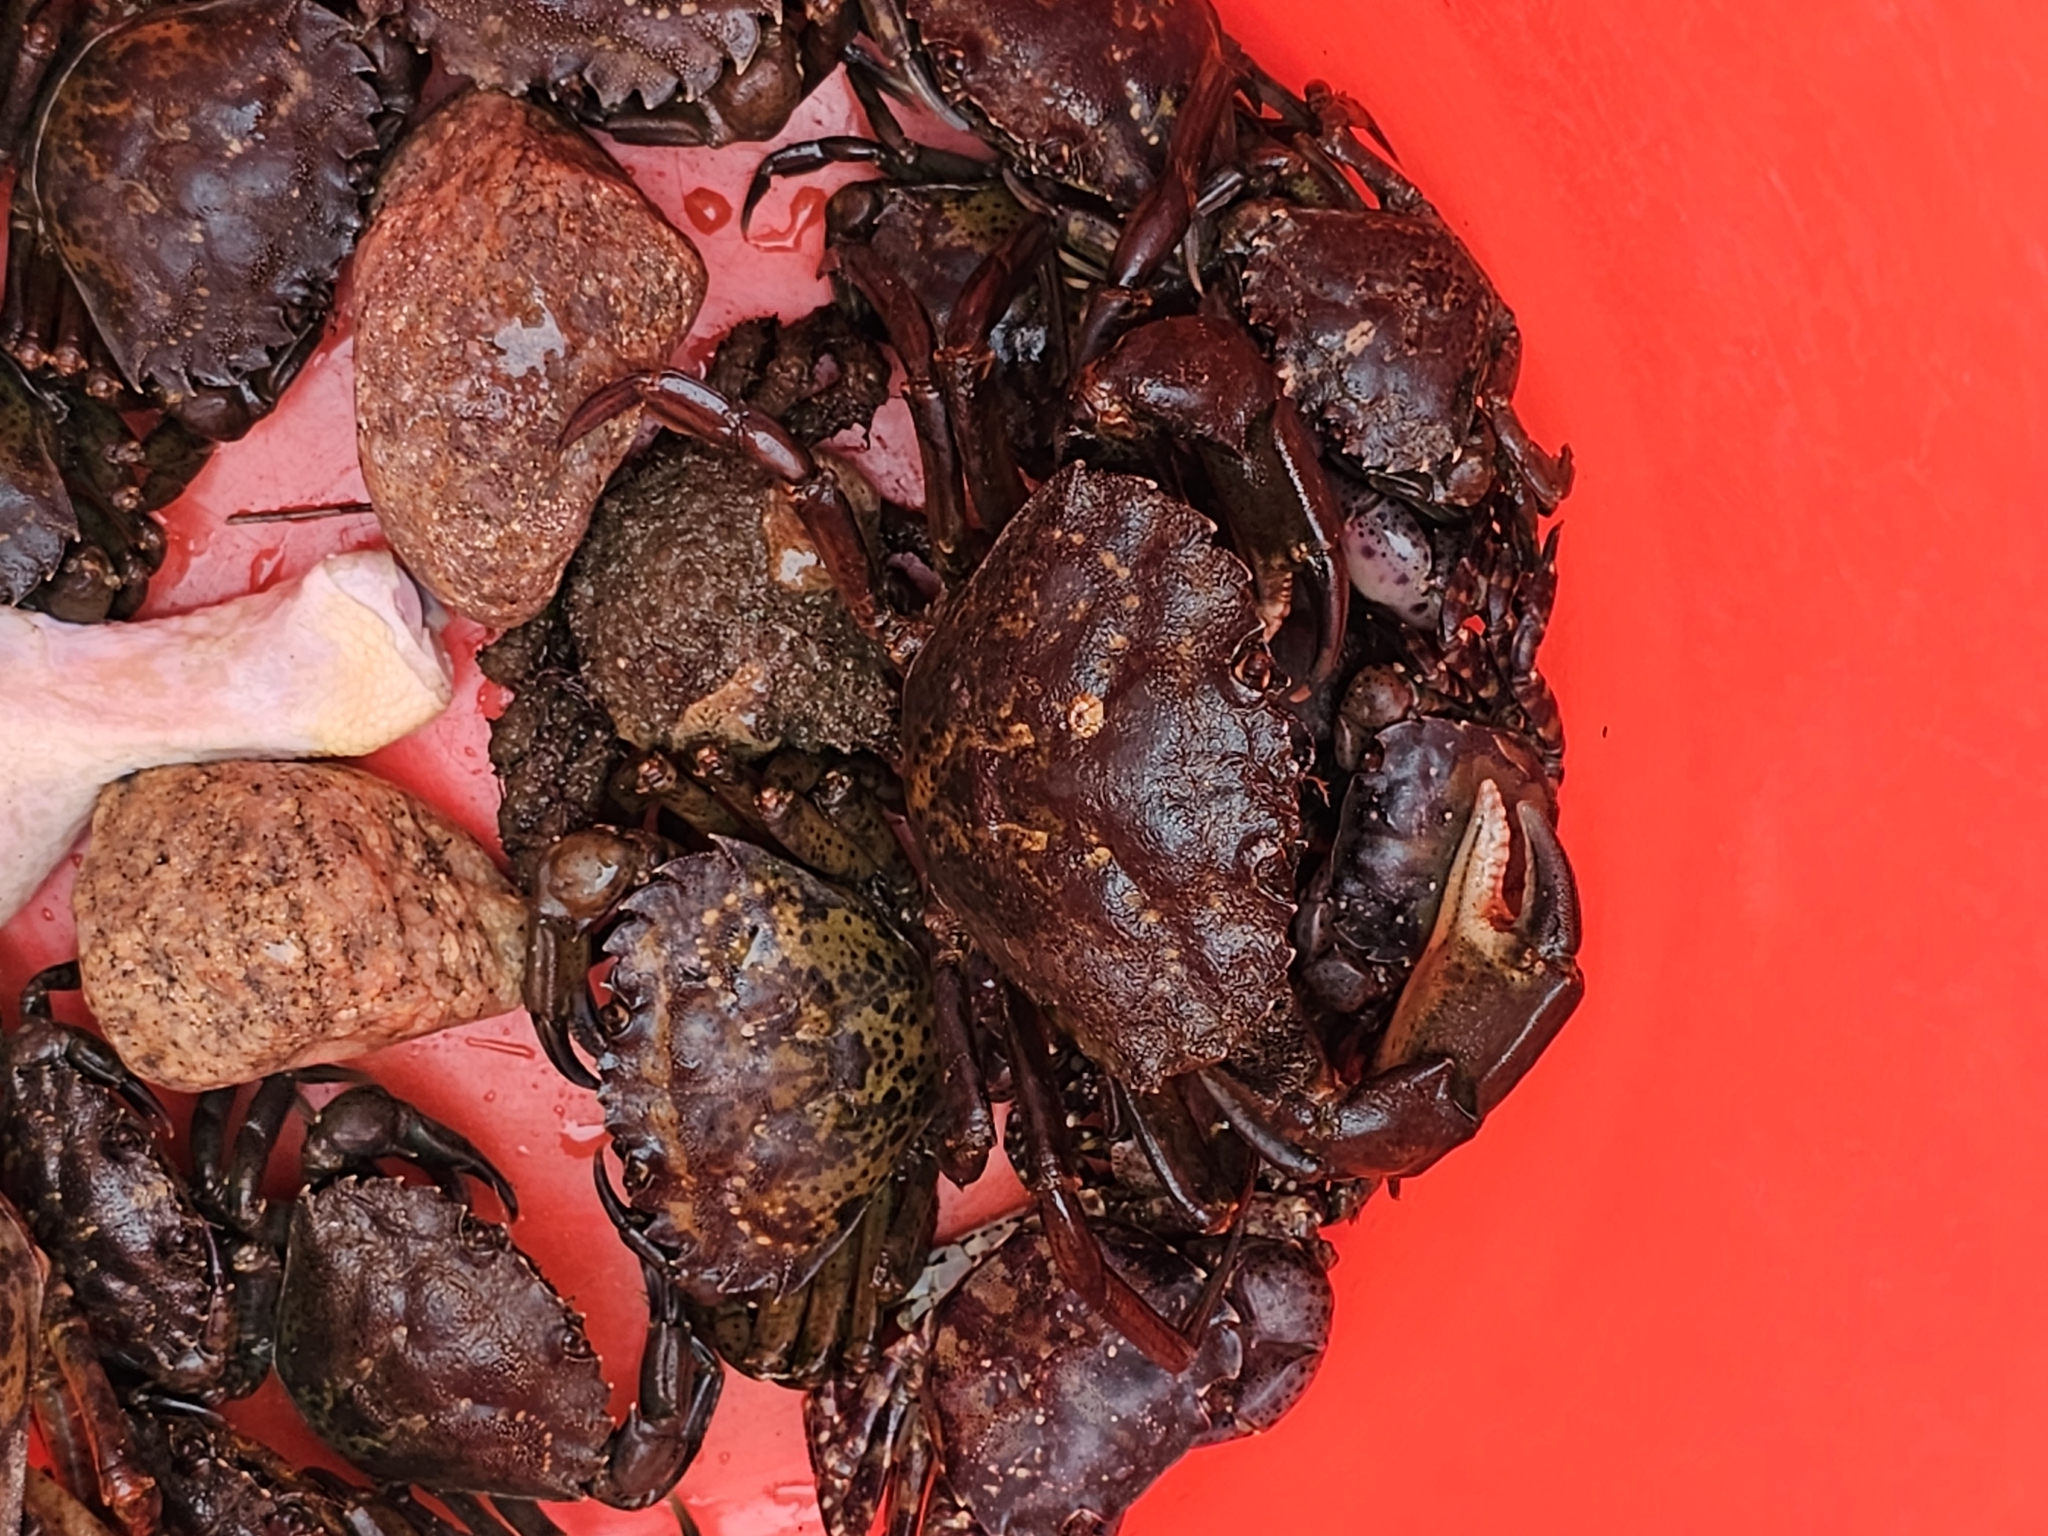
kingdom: Animalia
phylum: Arthropoda
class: Malacostraca
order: Decapoda
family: Carcinidae
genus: Carcinus
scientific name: Carcinus maenas
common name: European green crab
